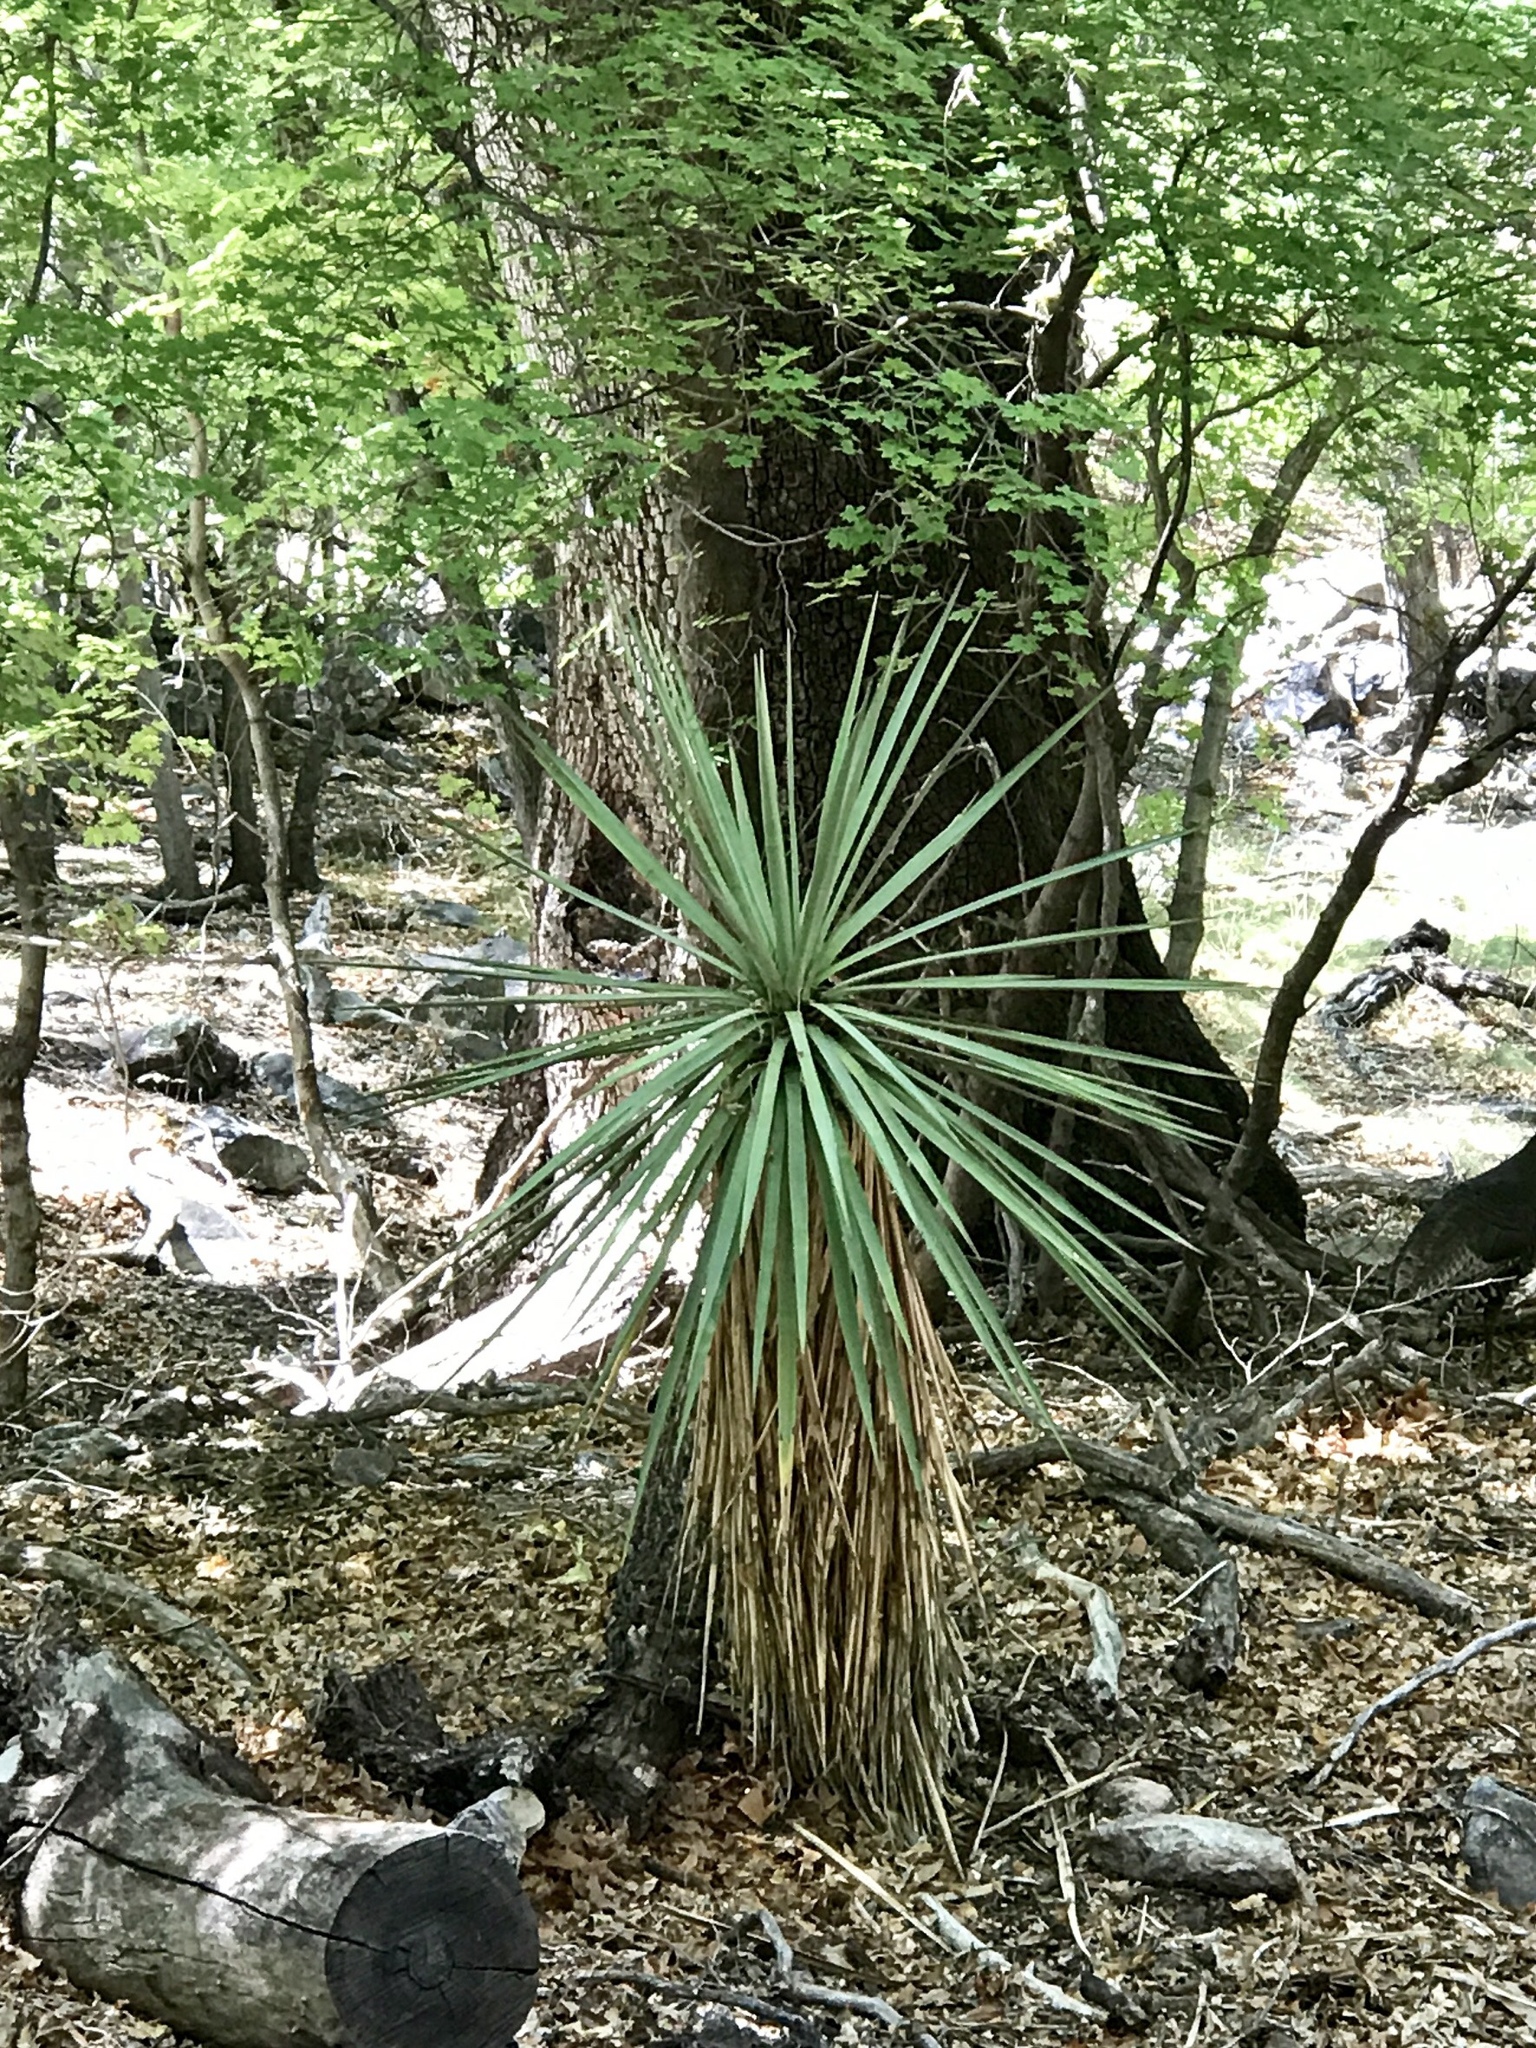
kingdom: Plantae
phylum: Tracheophyta
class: Liliopsida
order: Asparagales
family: Asparagaceae
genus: Yucca
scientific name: Yucca madrensis
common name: Hoary yucca
